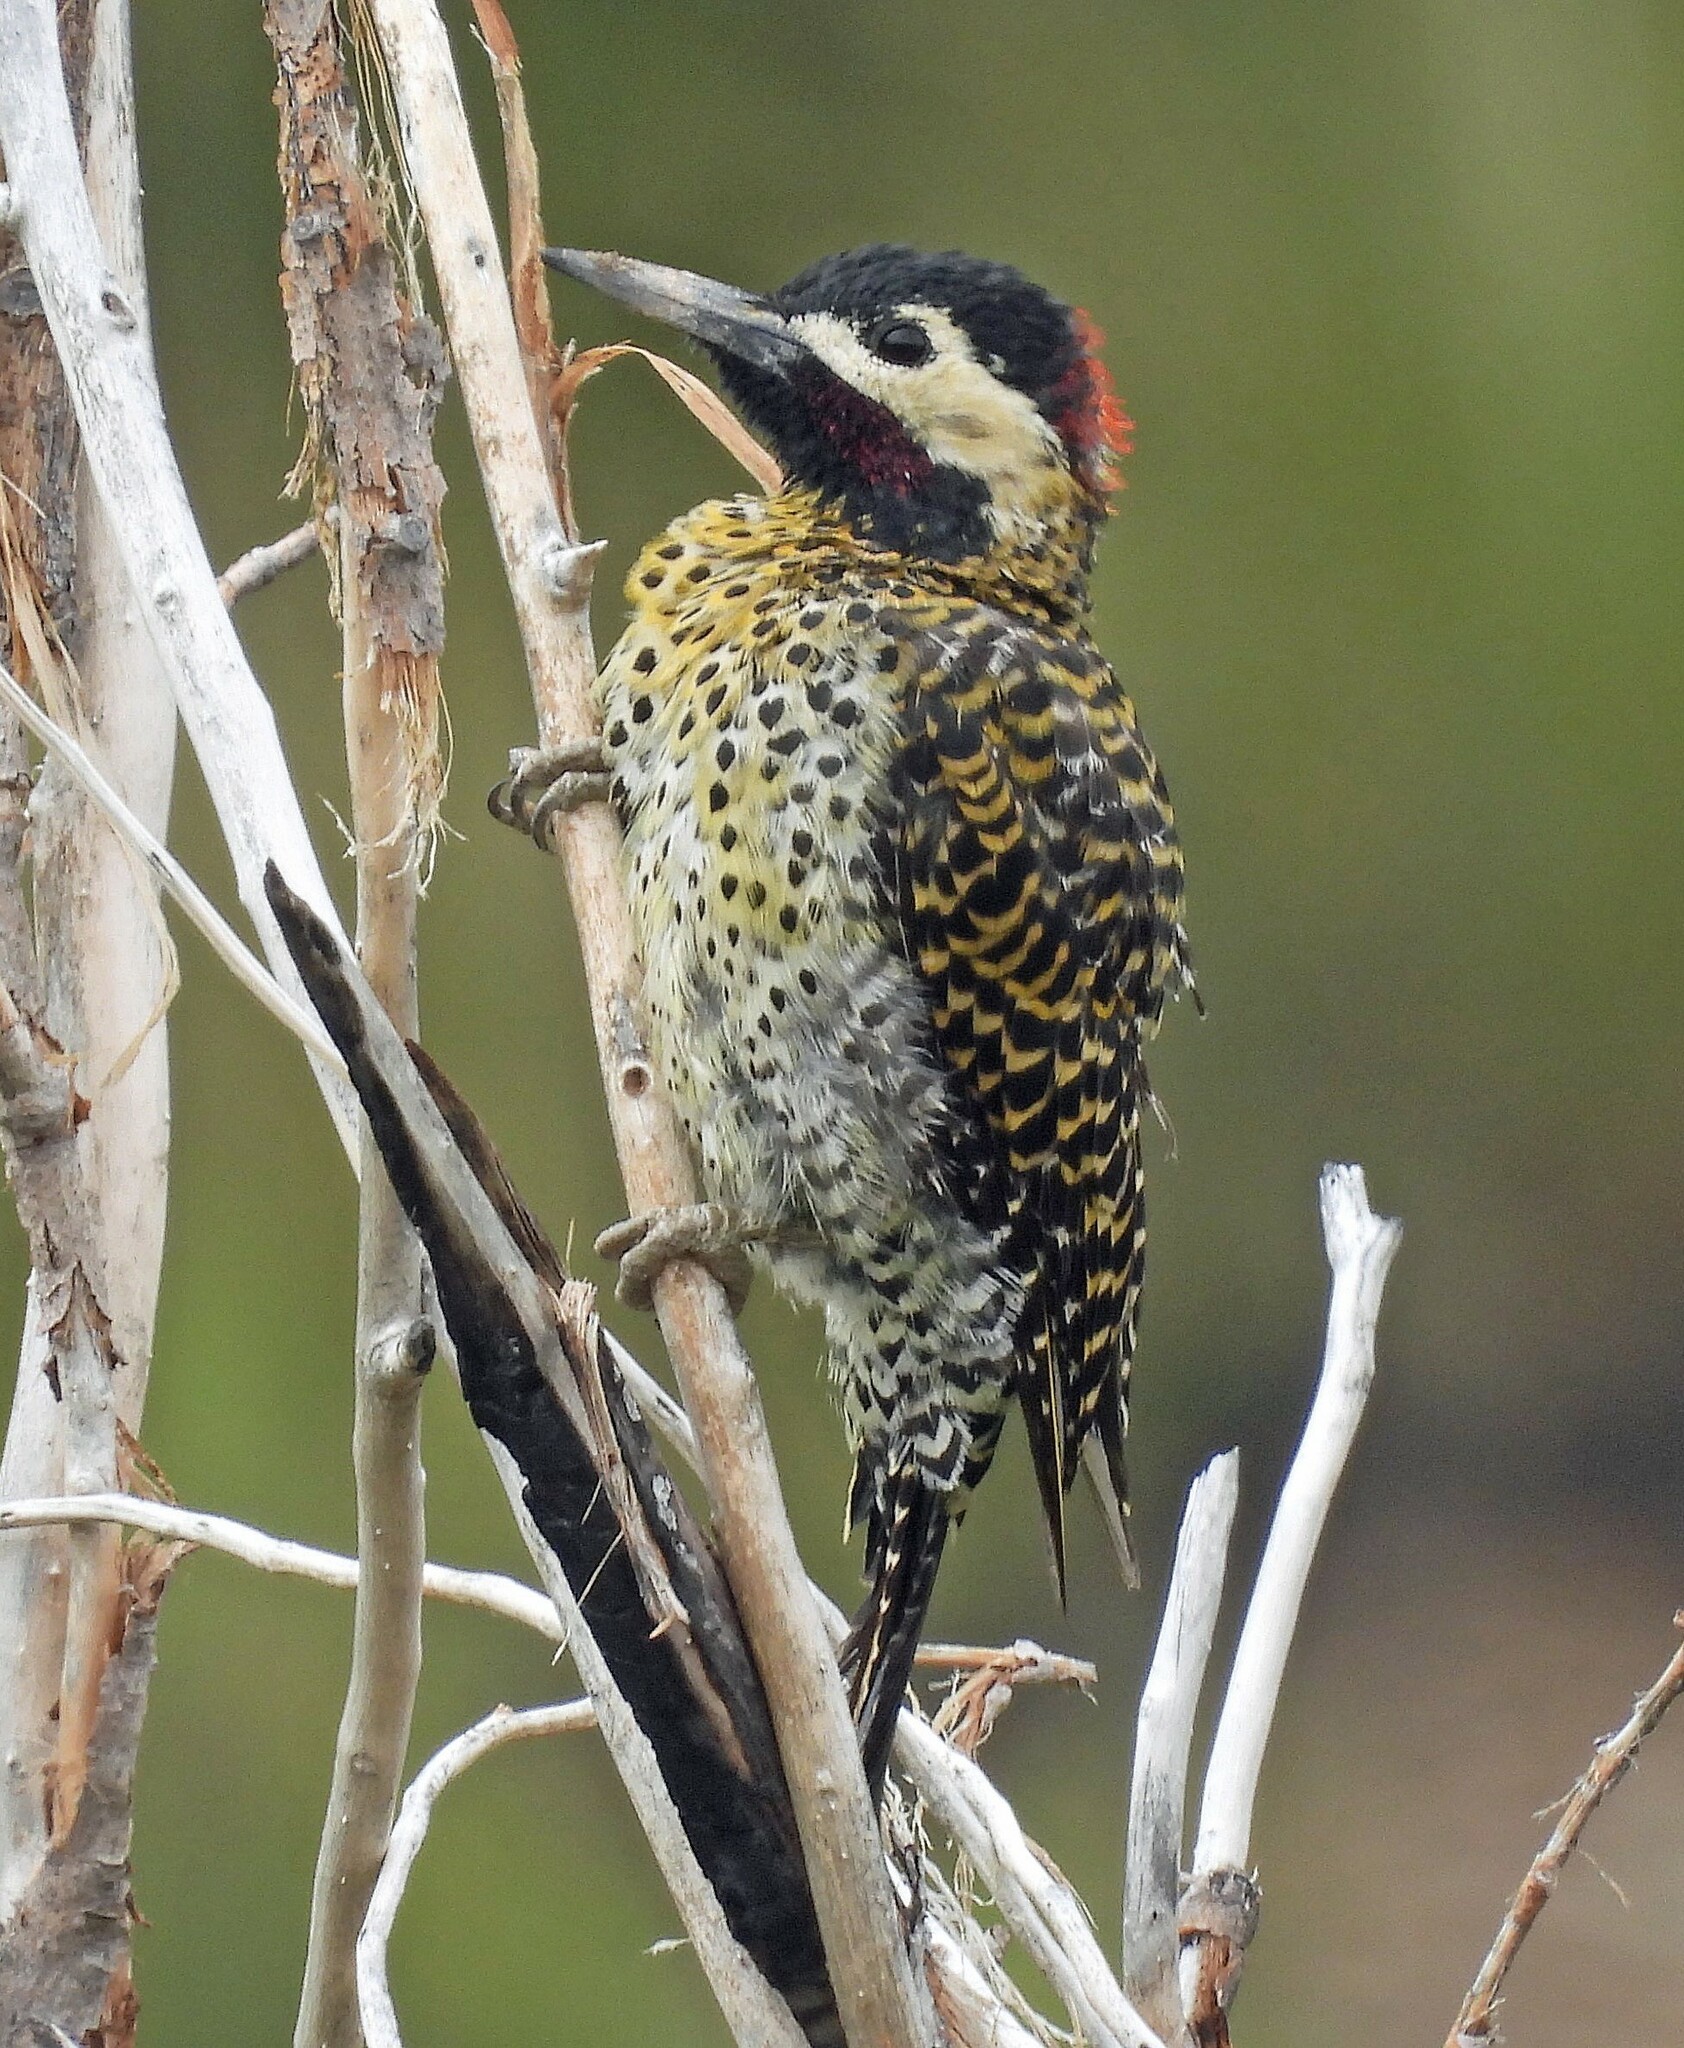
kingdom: Animalia
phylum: Chordata
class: Aves
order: Piciformes
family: Picidae
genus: Colaptes
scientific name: Colaptes melanochloros
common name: Green-barred woodpecker
